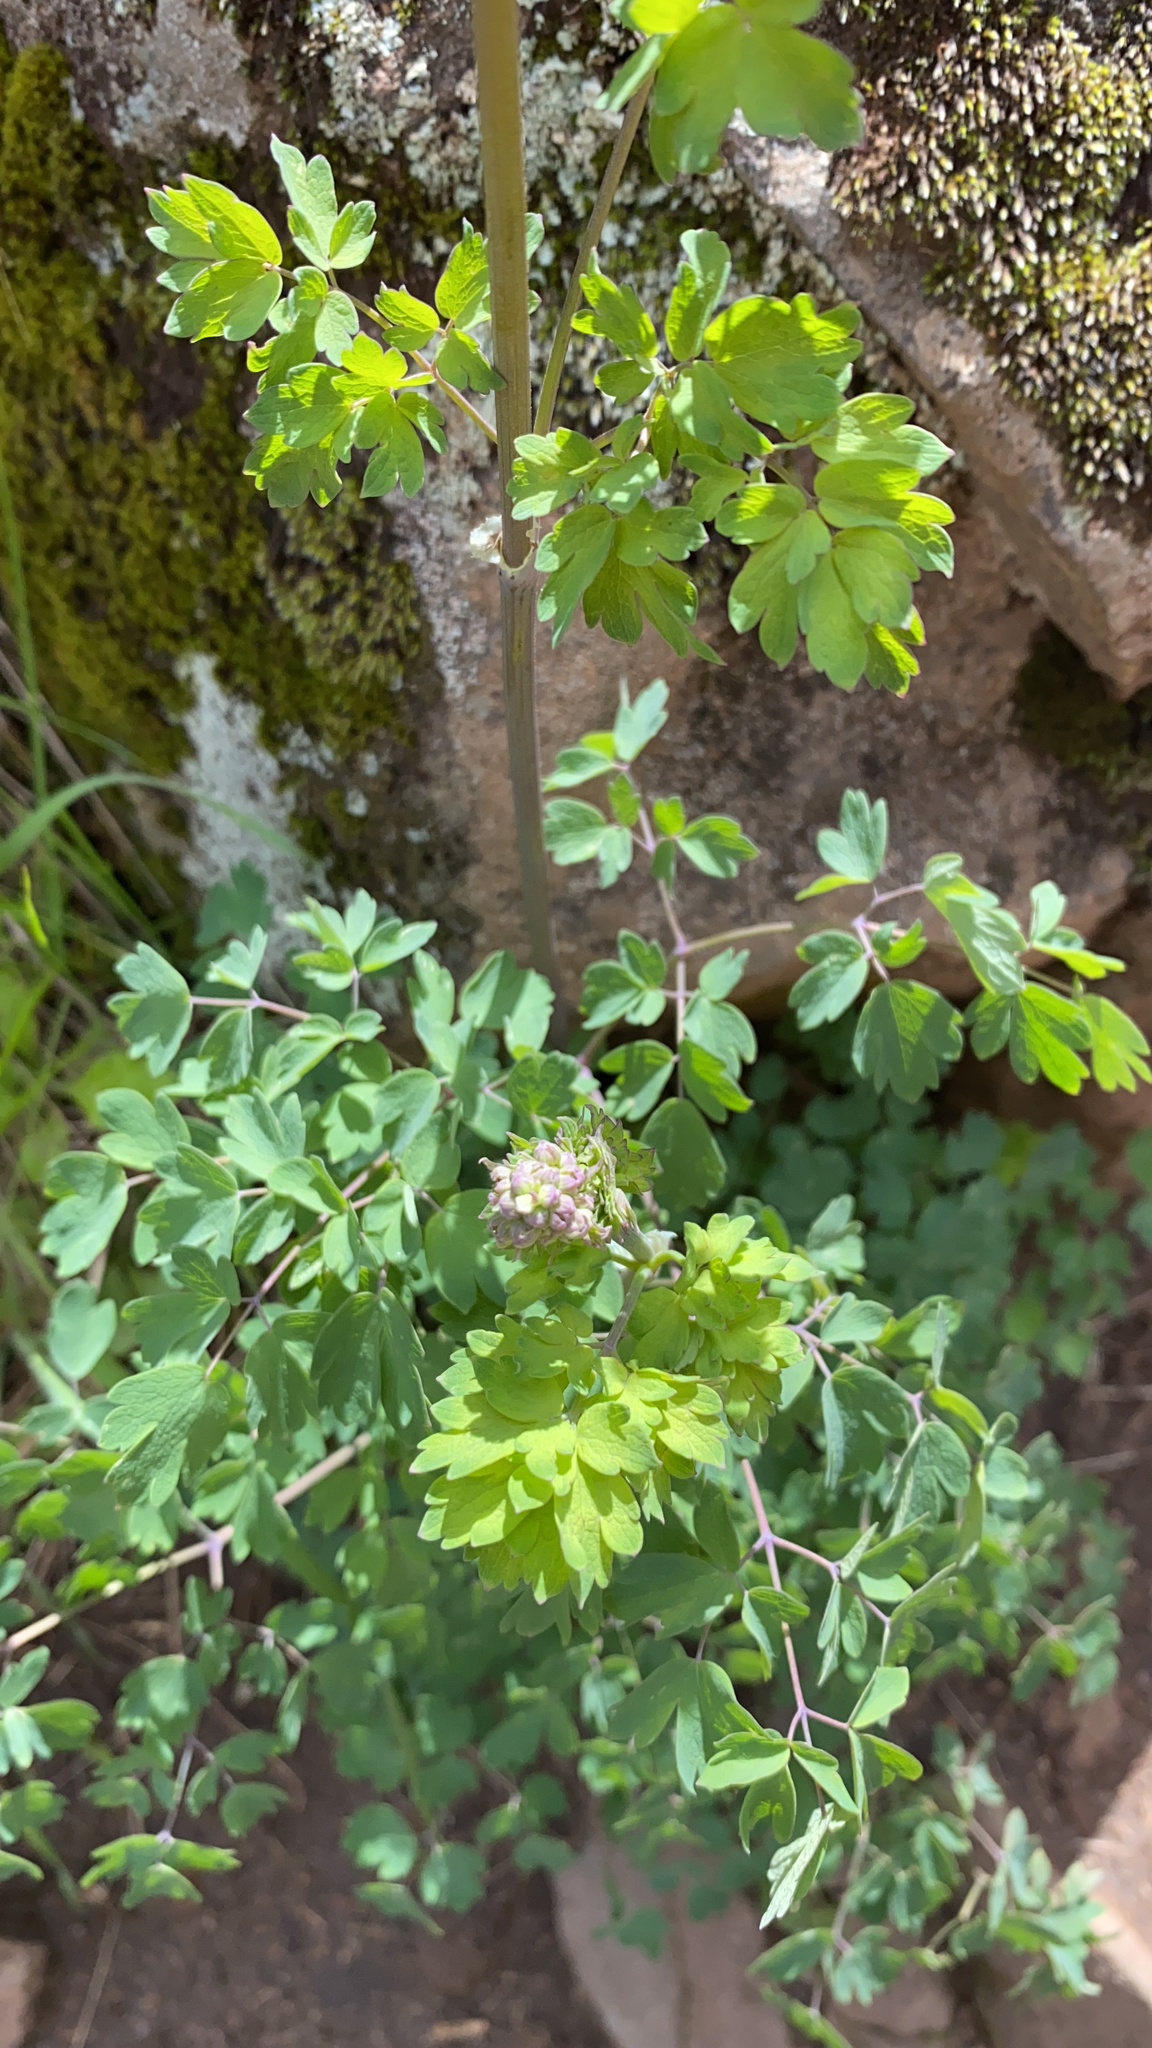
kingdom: Plantae
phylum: Tracheophyta
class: Magnoliopsida
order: Ranunculales
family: Ranunculaceae
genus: Thalictrum
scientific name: Thalictrum fendleri
